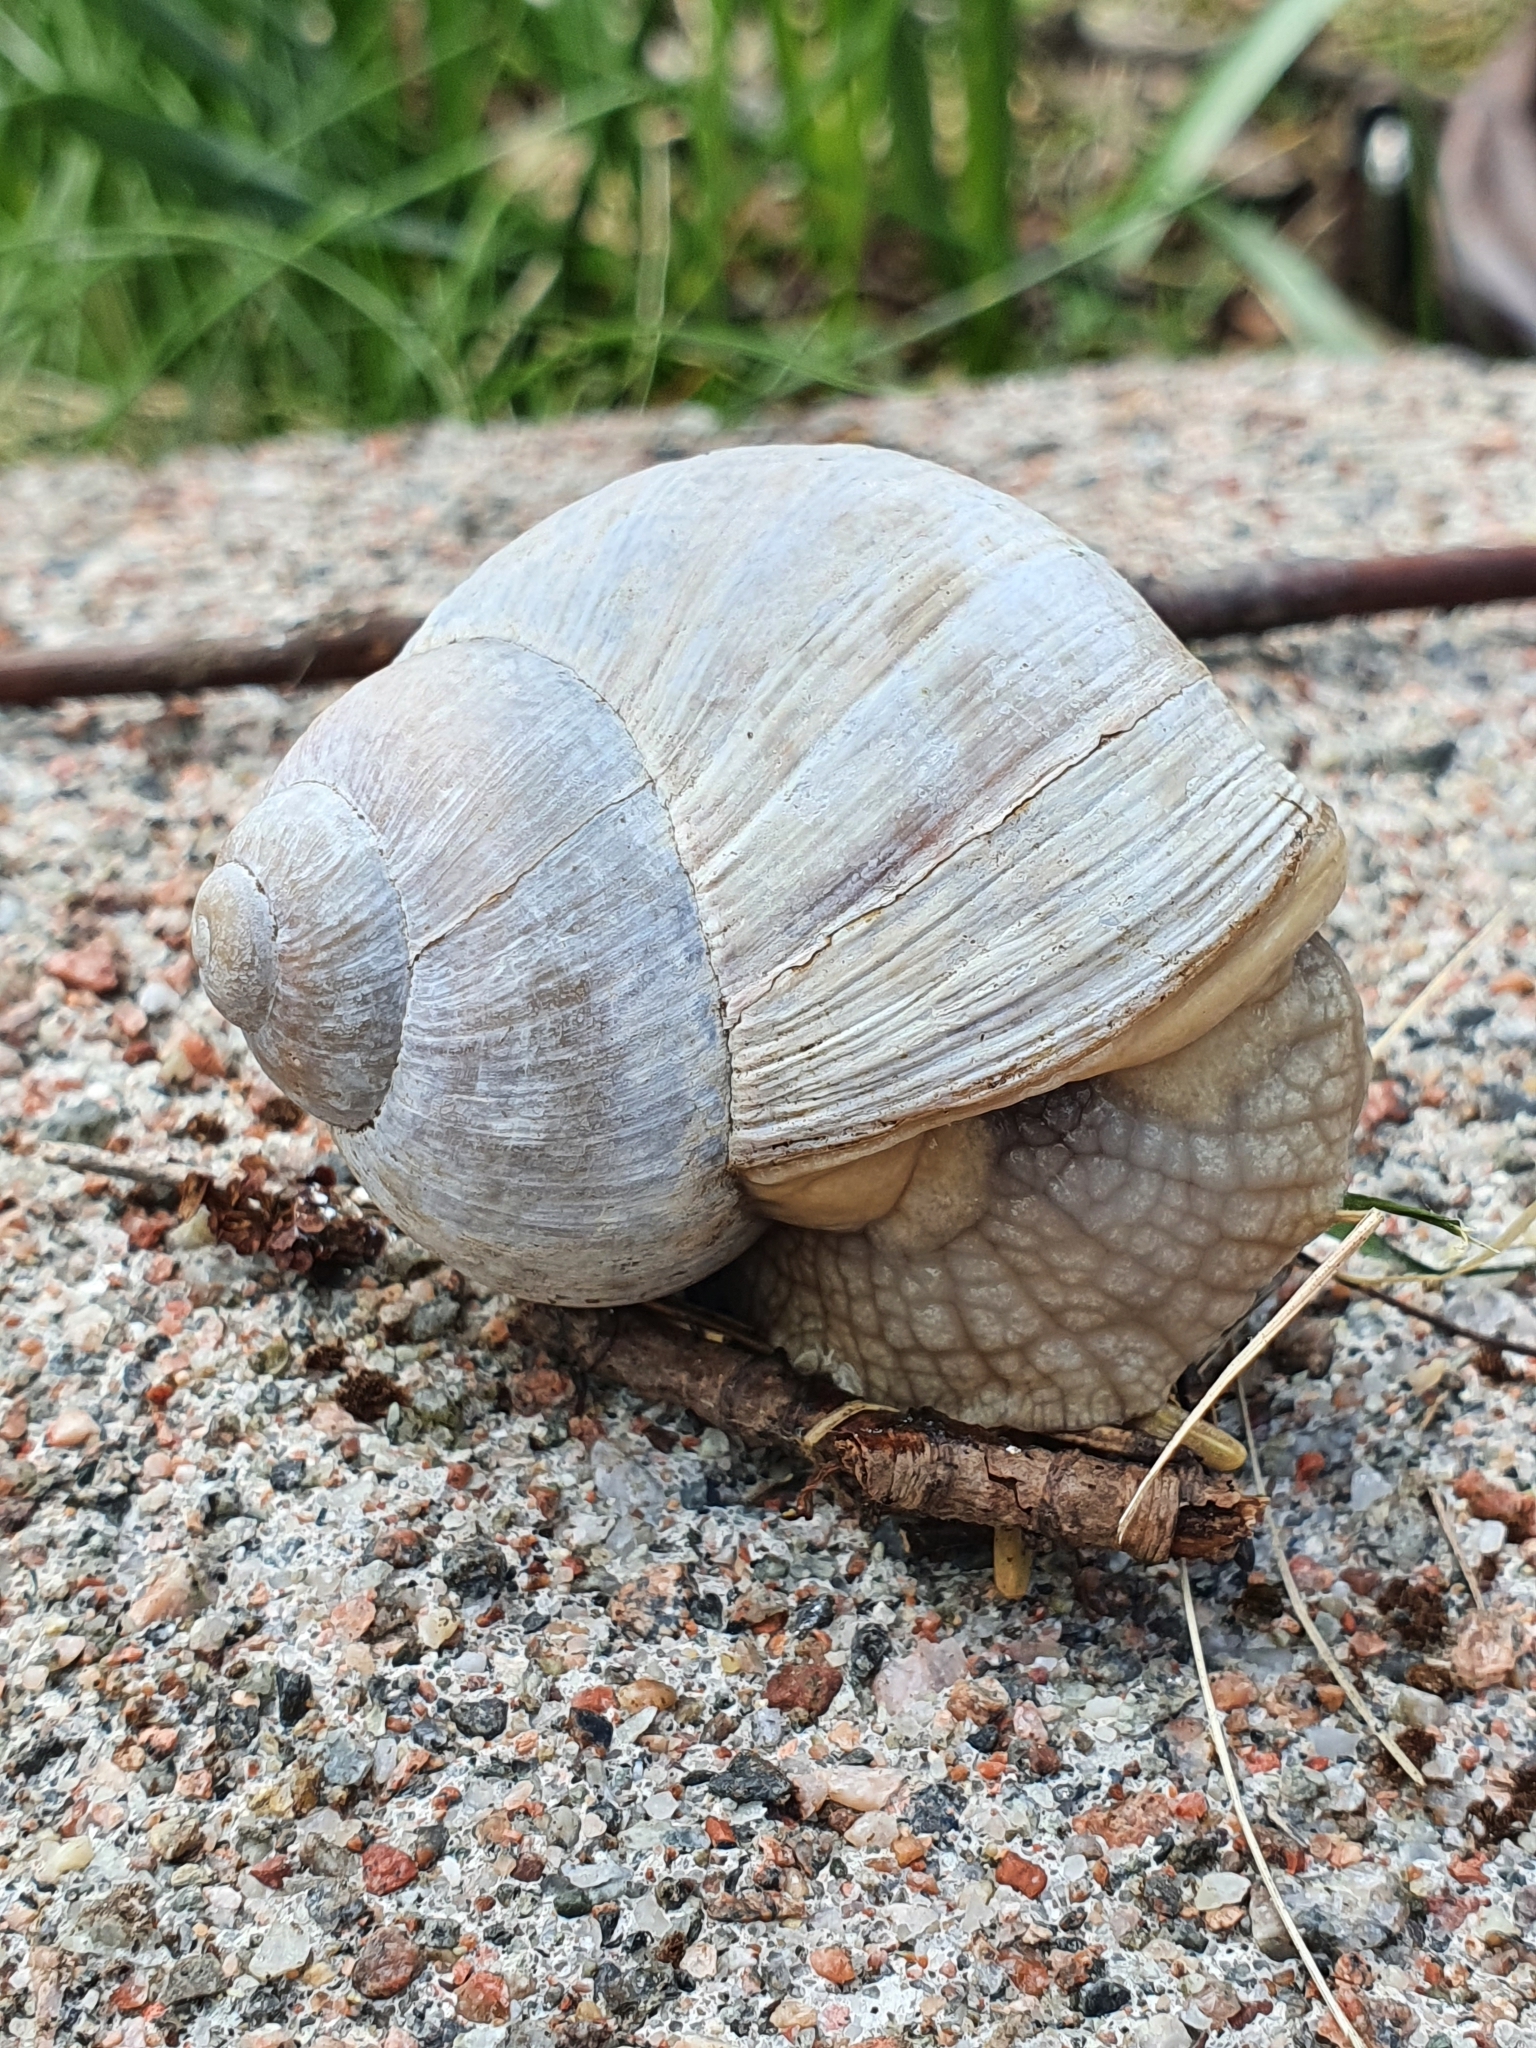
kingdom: Animalia
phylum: Mollusca
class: Gastropoda
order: Stylommatophora
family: Helicidae
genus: Helix
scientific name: Helix pomatia
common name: Roman snail
